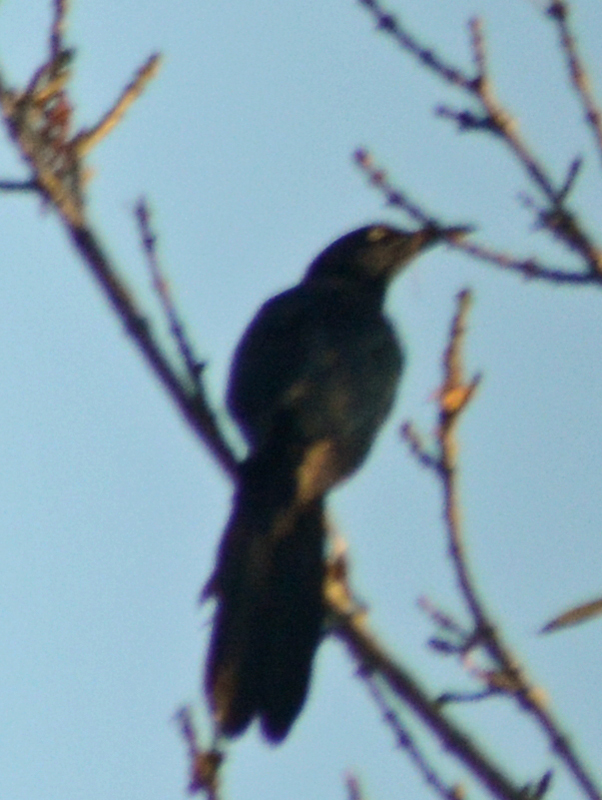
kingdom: Animalia
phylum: Chordata
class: Aves
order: Passeriformes
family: Icteridae
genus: Quiscalus
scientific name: Quiscalus mexicanus
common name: Great-tailed grackle
